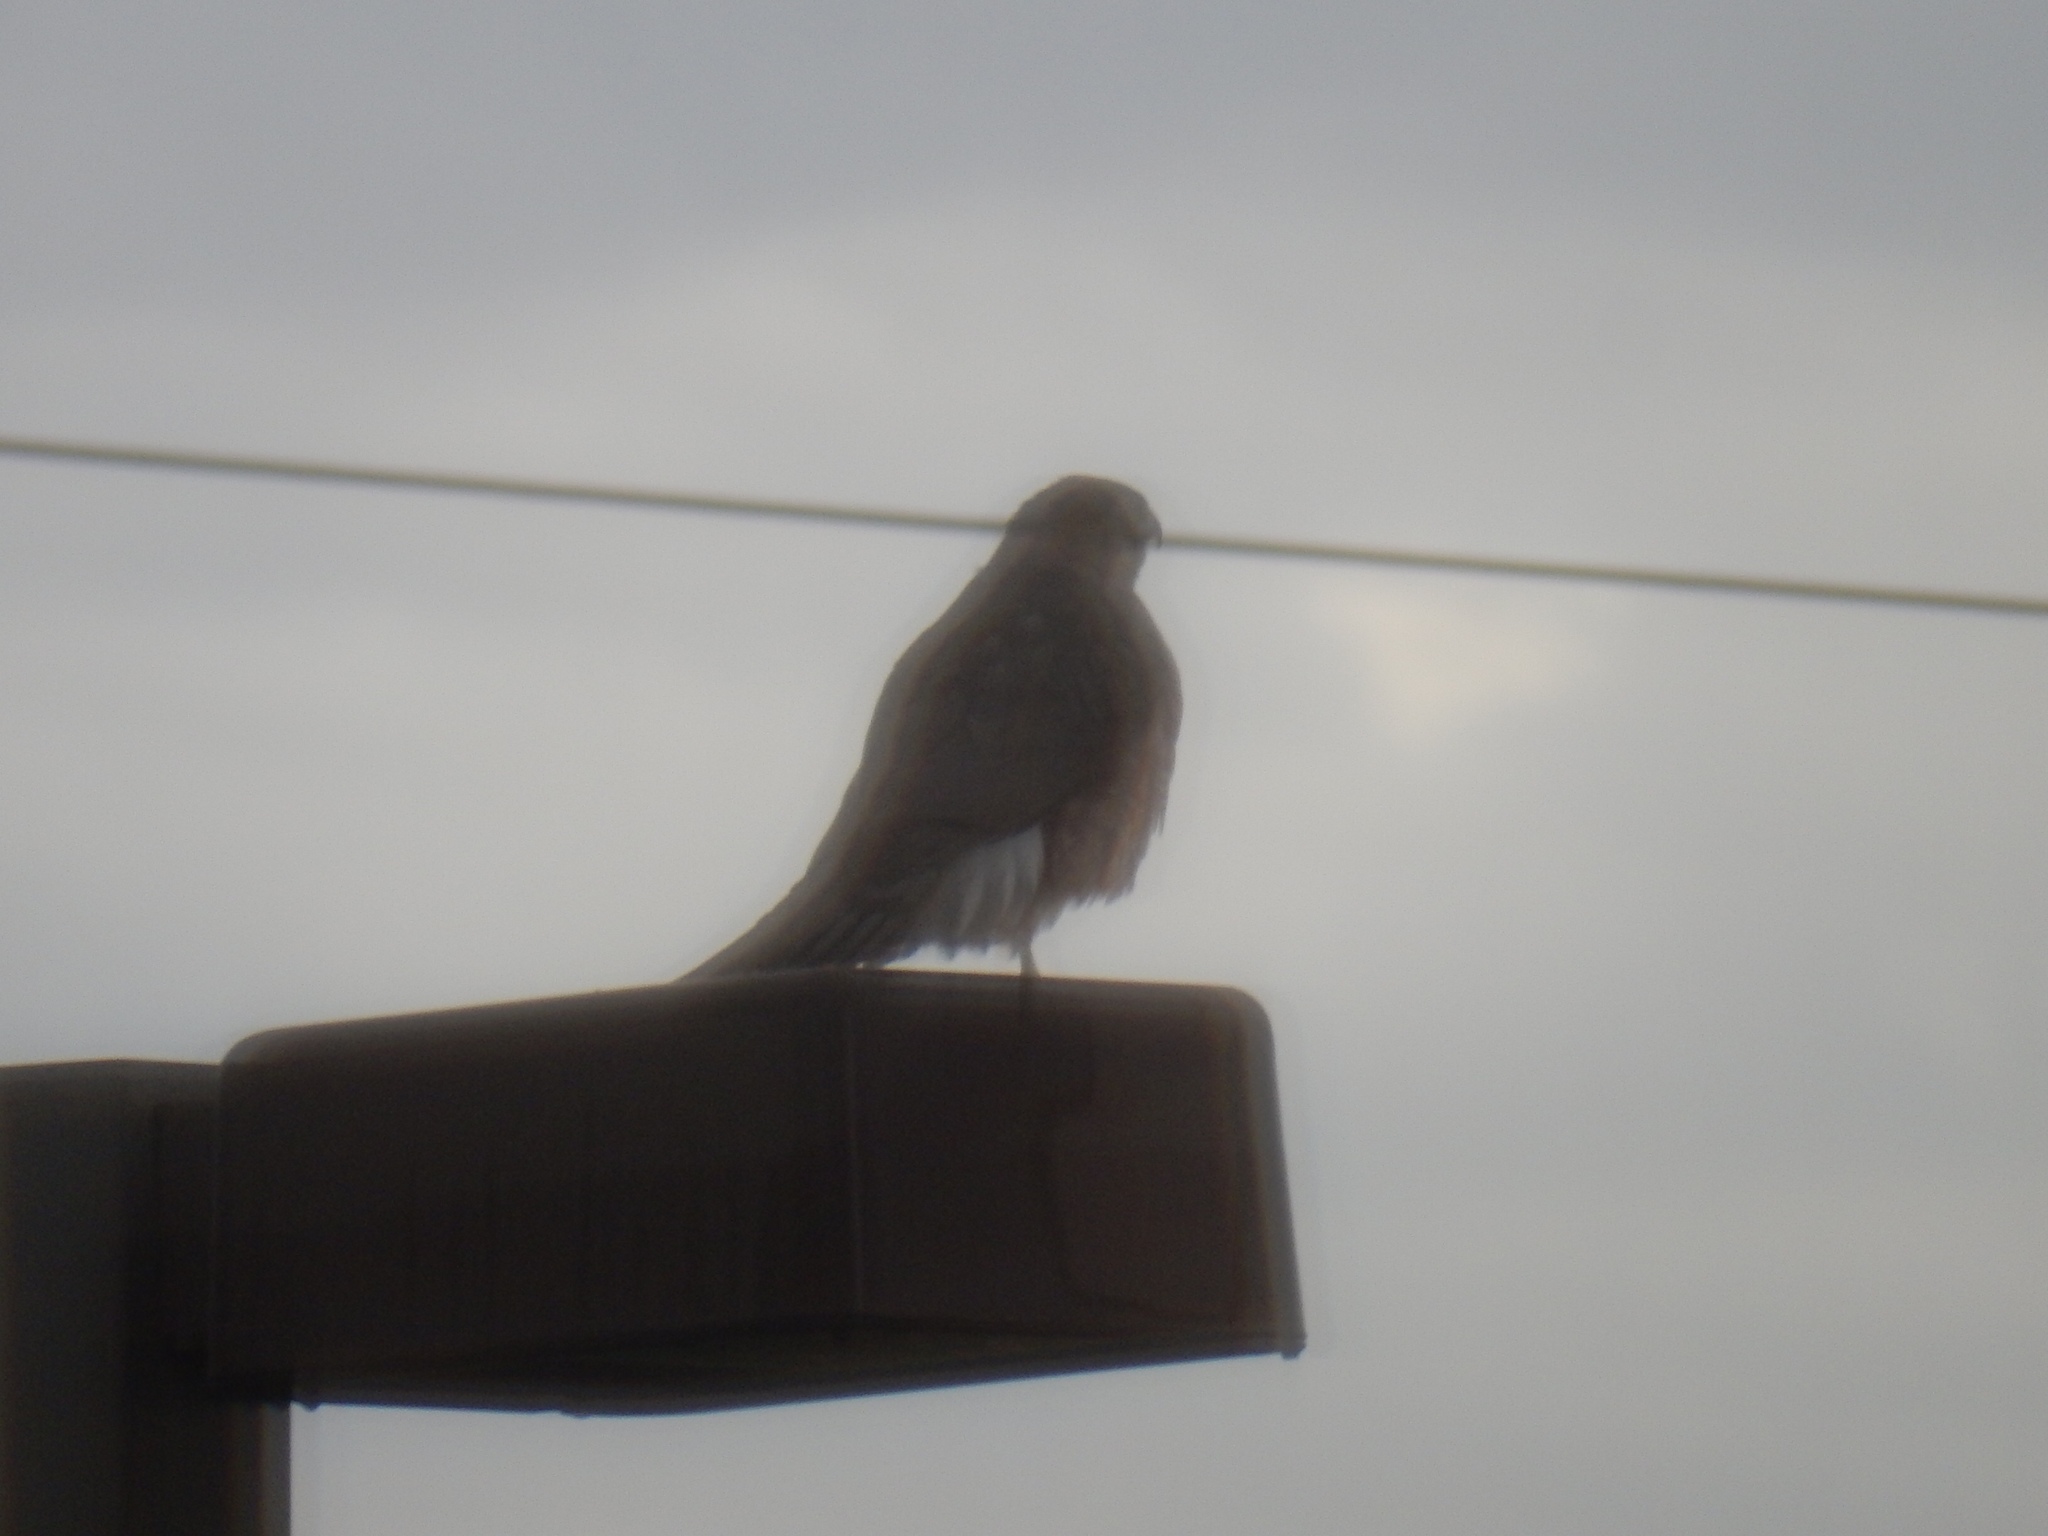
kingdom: Animalia
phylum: Chordata
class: Aves
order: Accipitriformes
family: Accipitridae
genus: Accipiter
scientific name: Accipiter cooperii
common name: Cooper's hawk
